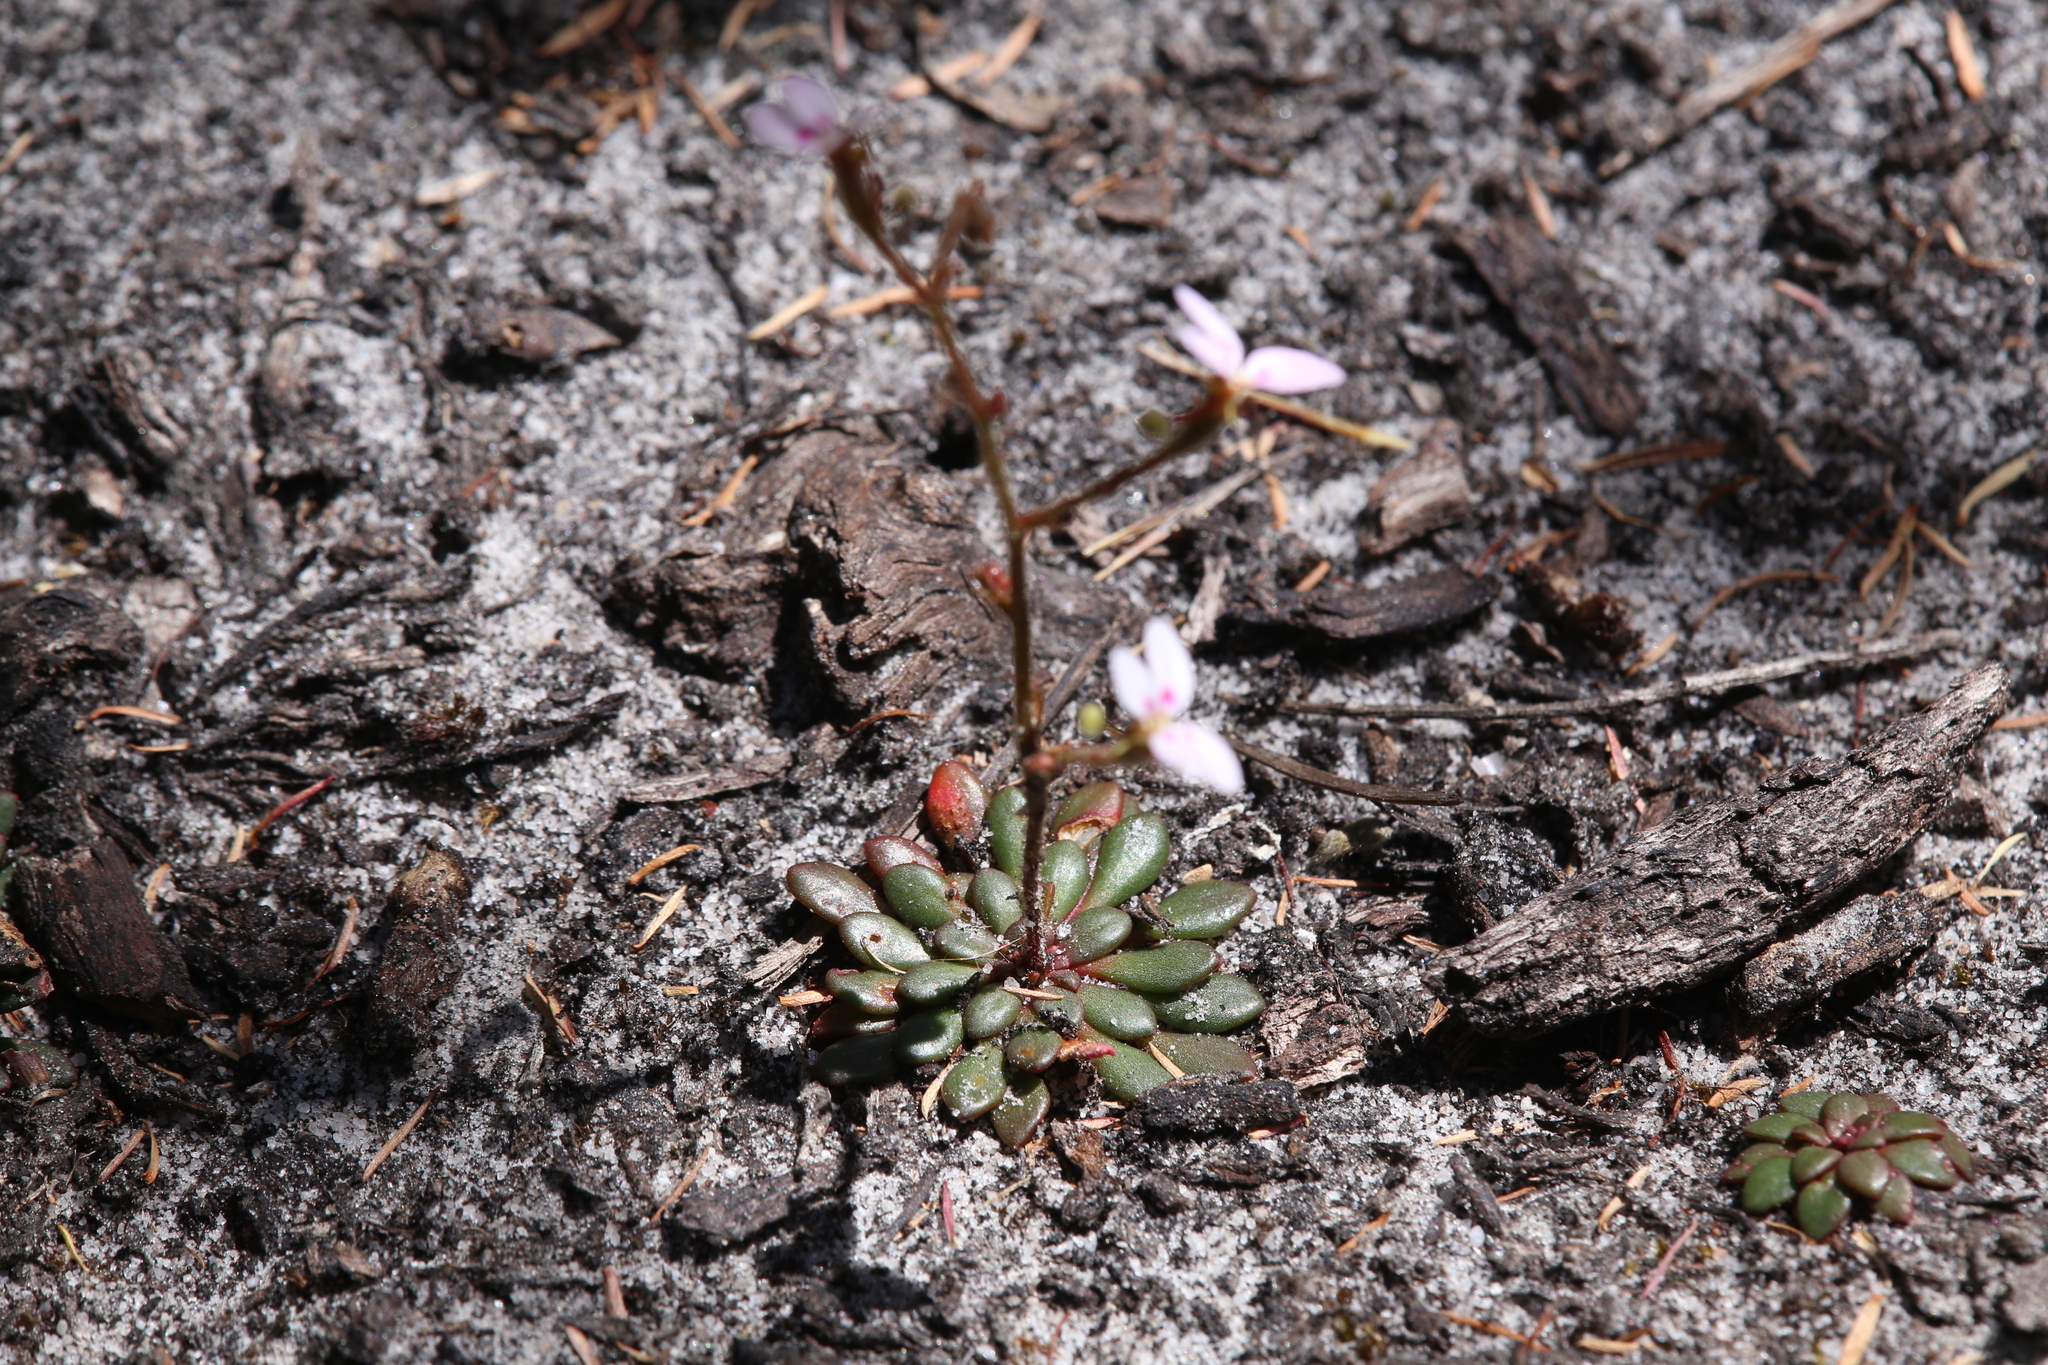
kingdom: Plantae
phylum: Tracheophyta
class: Magnoliopsida
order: Asterales
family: Stylidiaceae
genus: Stylidium
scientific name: Stylidium assimile
